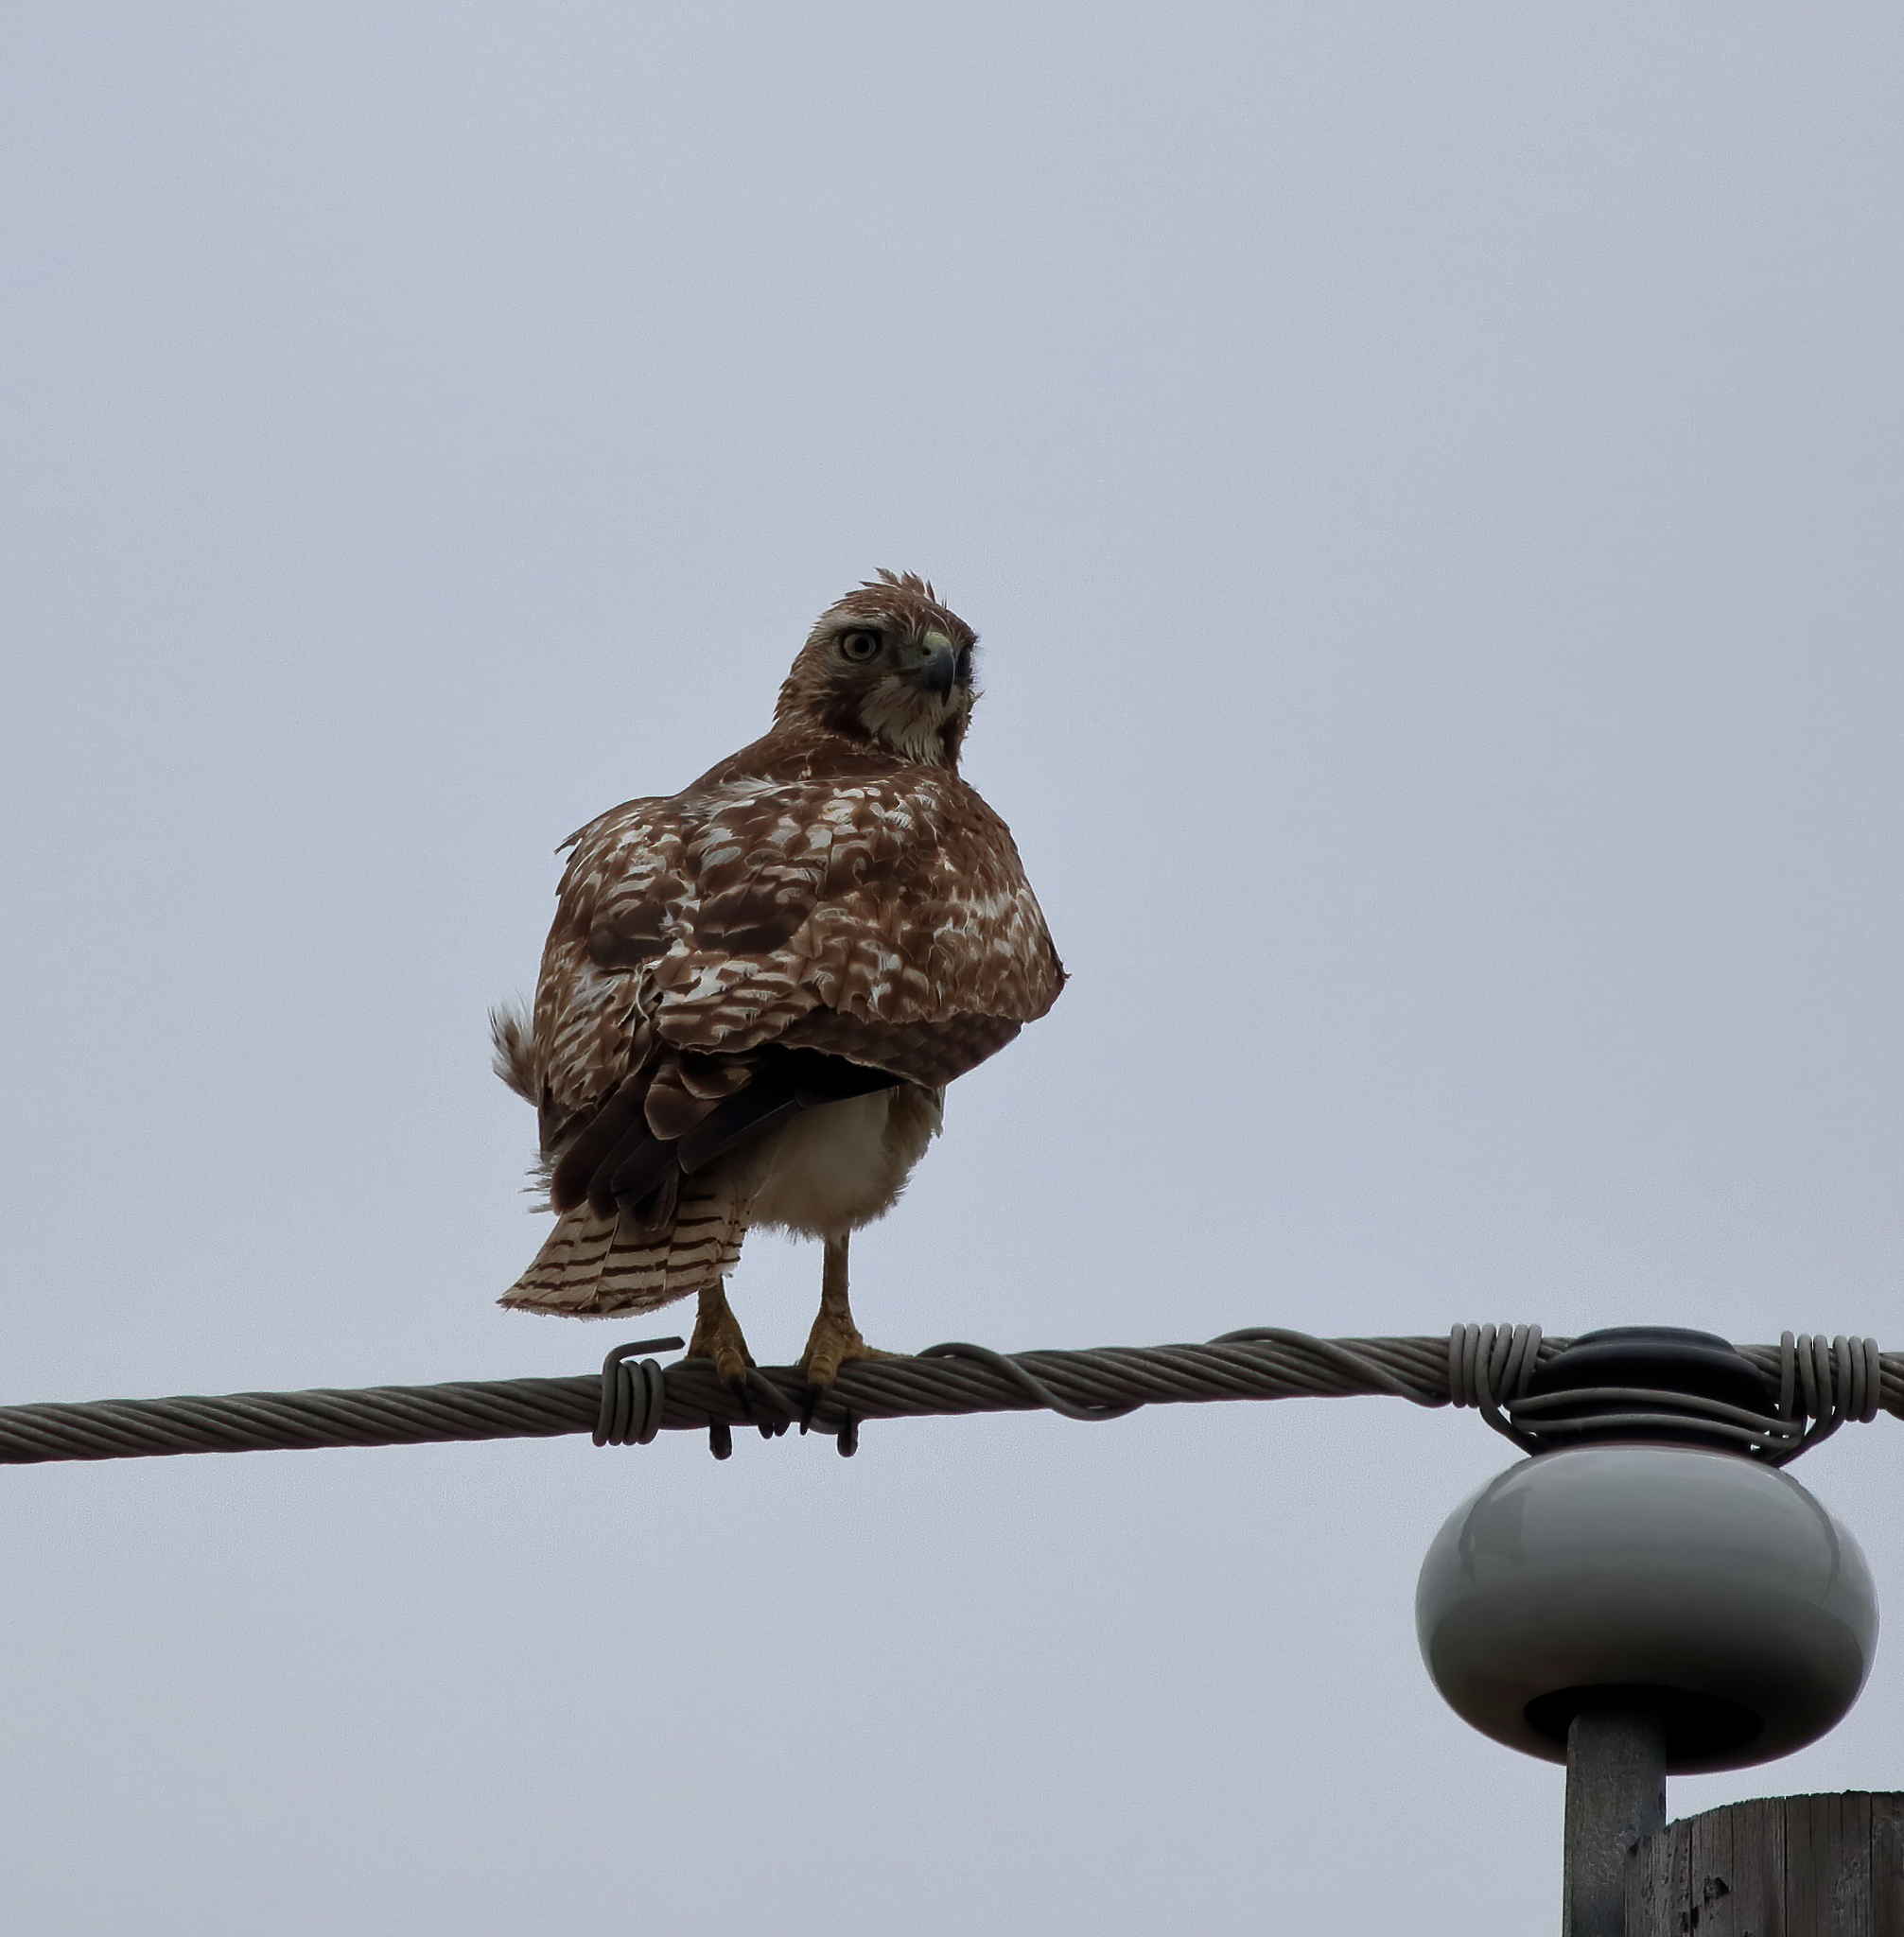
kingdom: Animalia
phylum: Chordata
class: Aves
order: Accipitriformes
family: Accipitridae
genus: Buteo
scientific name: Buteo jamaicensis
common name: Red-tailed hawk
